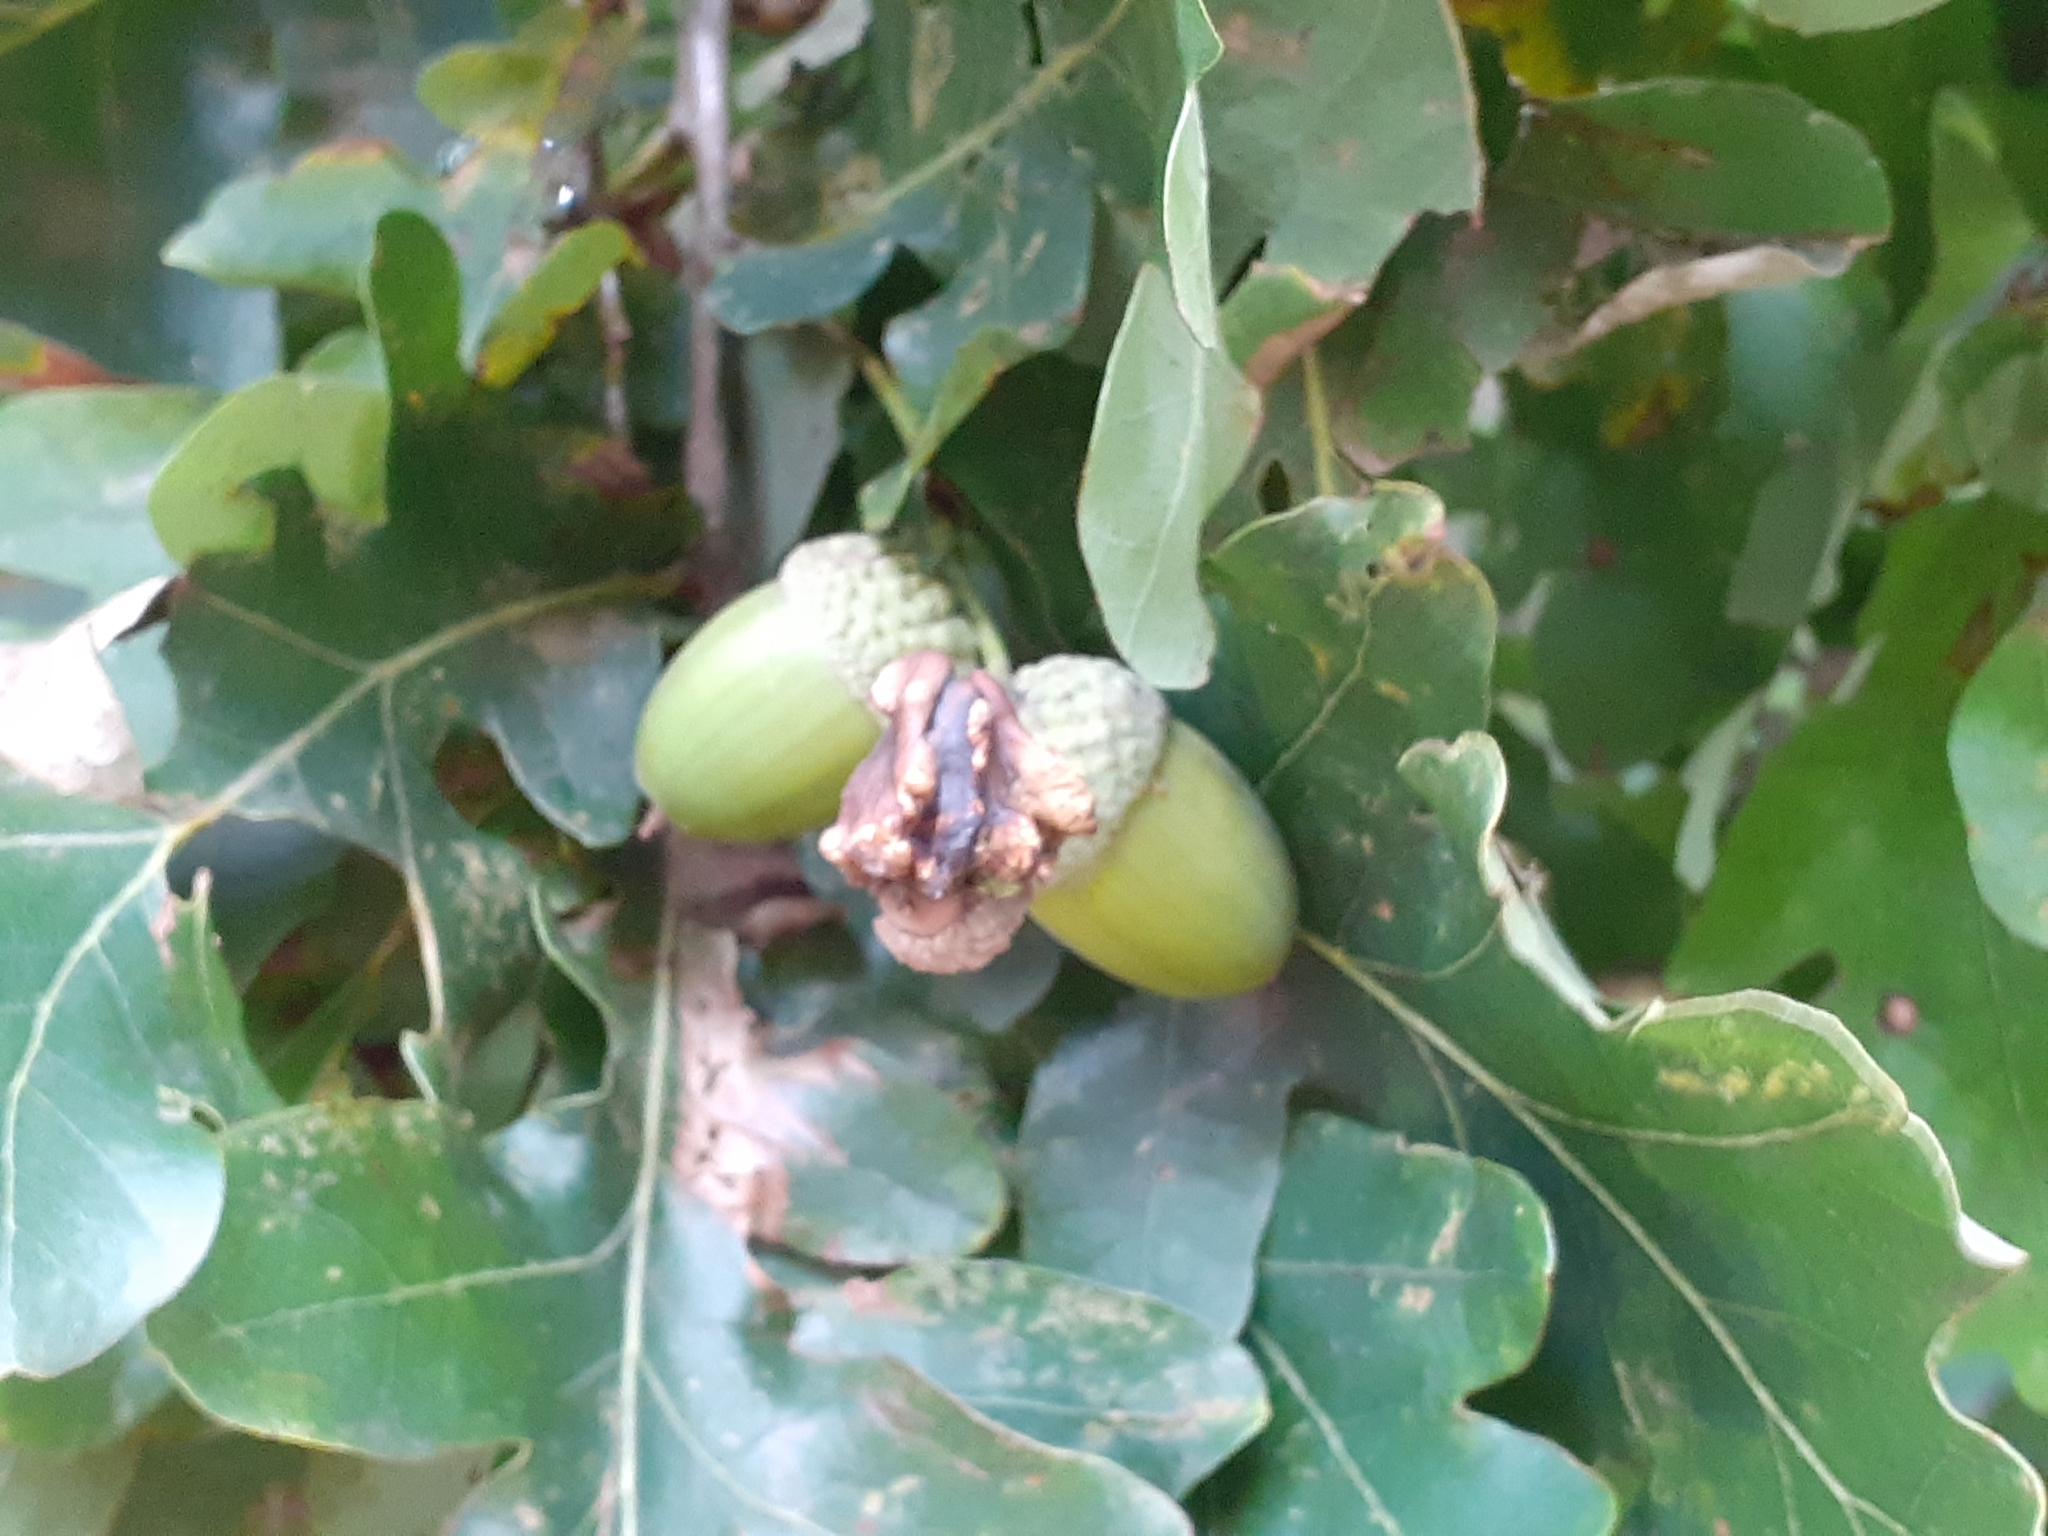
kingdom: Animalia
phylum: Arthropoda
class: Insecta
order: Hymenoptera
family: Cynipidae
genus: Andricus
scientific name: Andricus quercuscalicis
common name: Knopper gall
